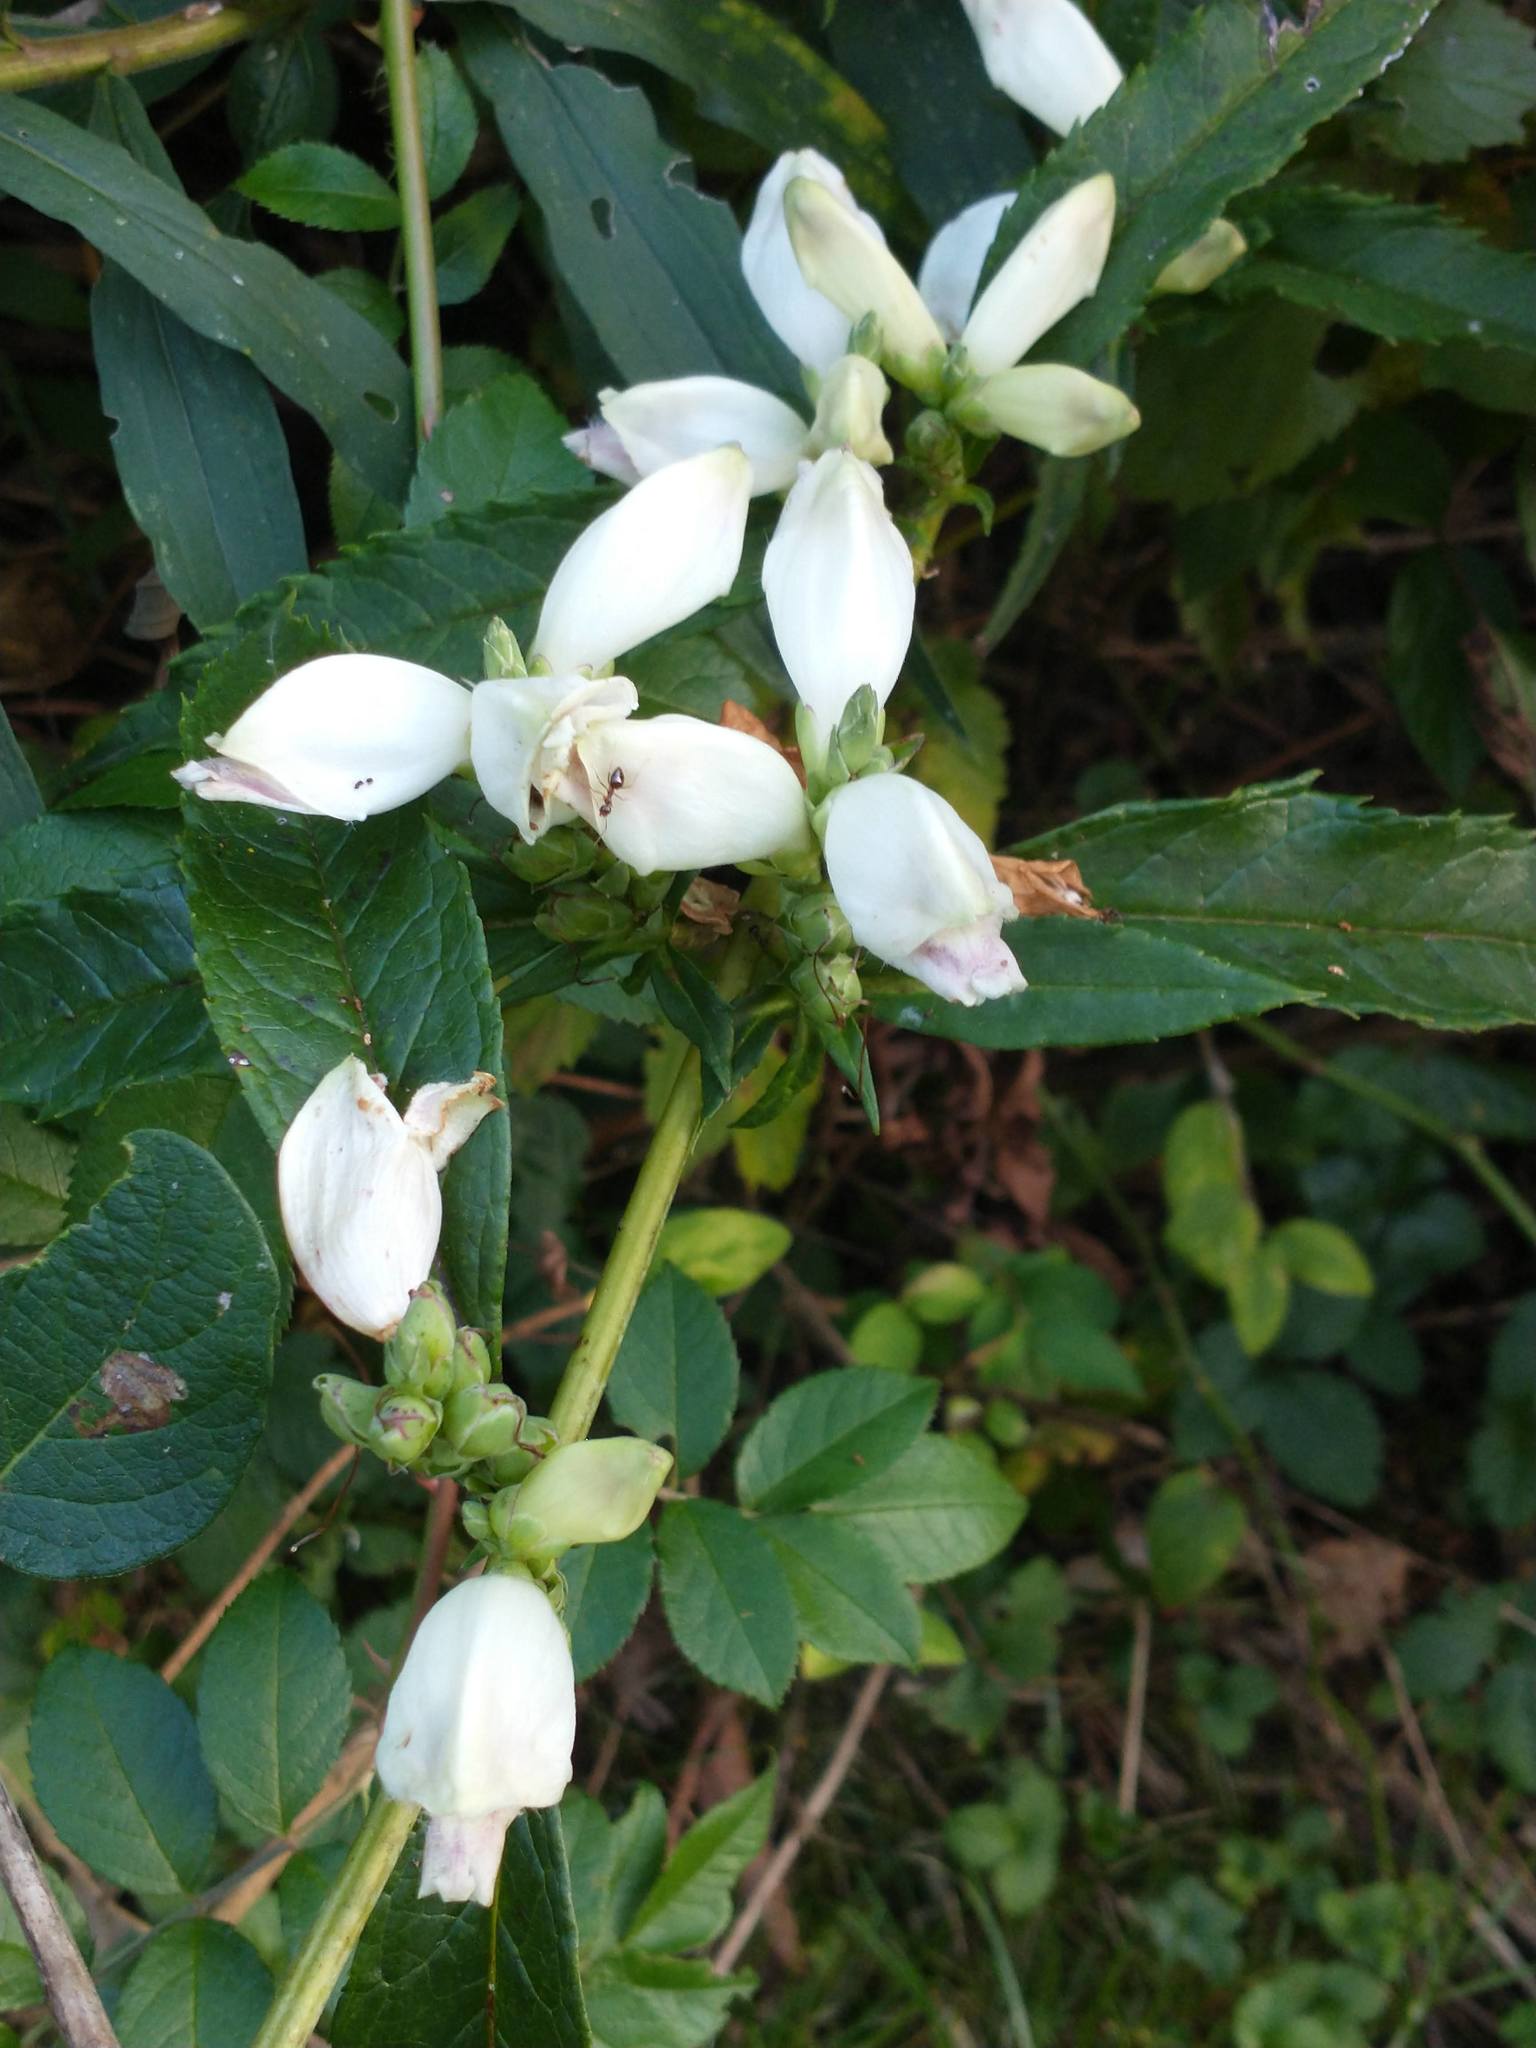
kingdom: Plantae
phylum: Tracheophyta
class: Magnoliopsida
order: Lamiales
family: Plantaginaceae
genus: Chelone
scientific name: Chelone glabra
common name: Snakehead
